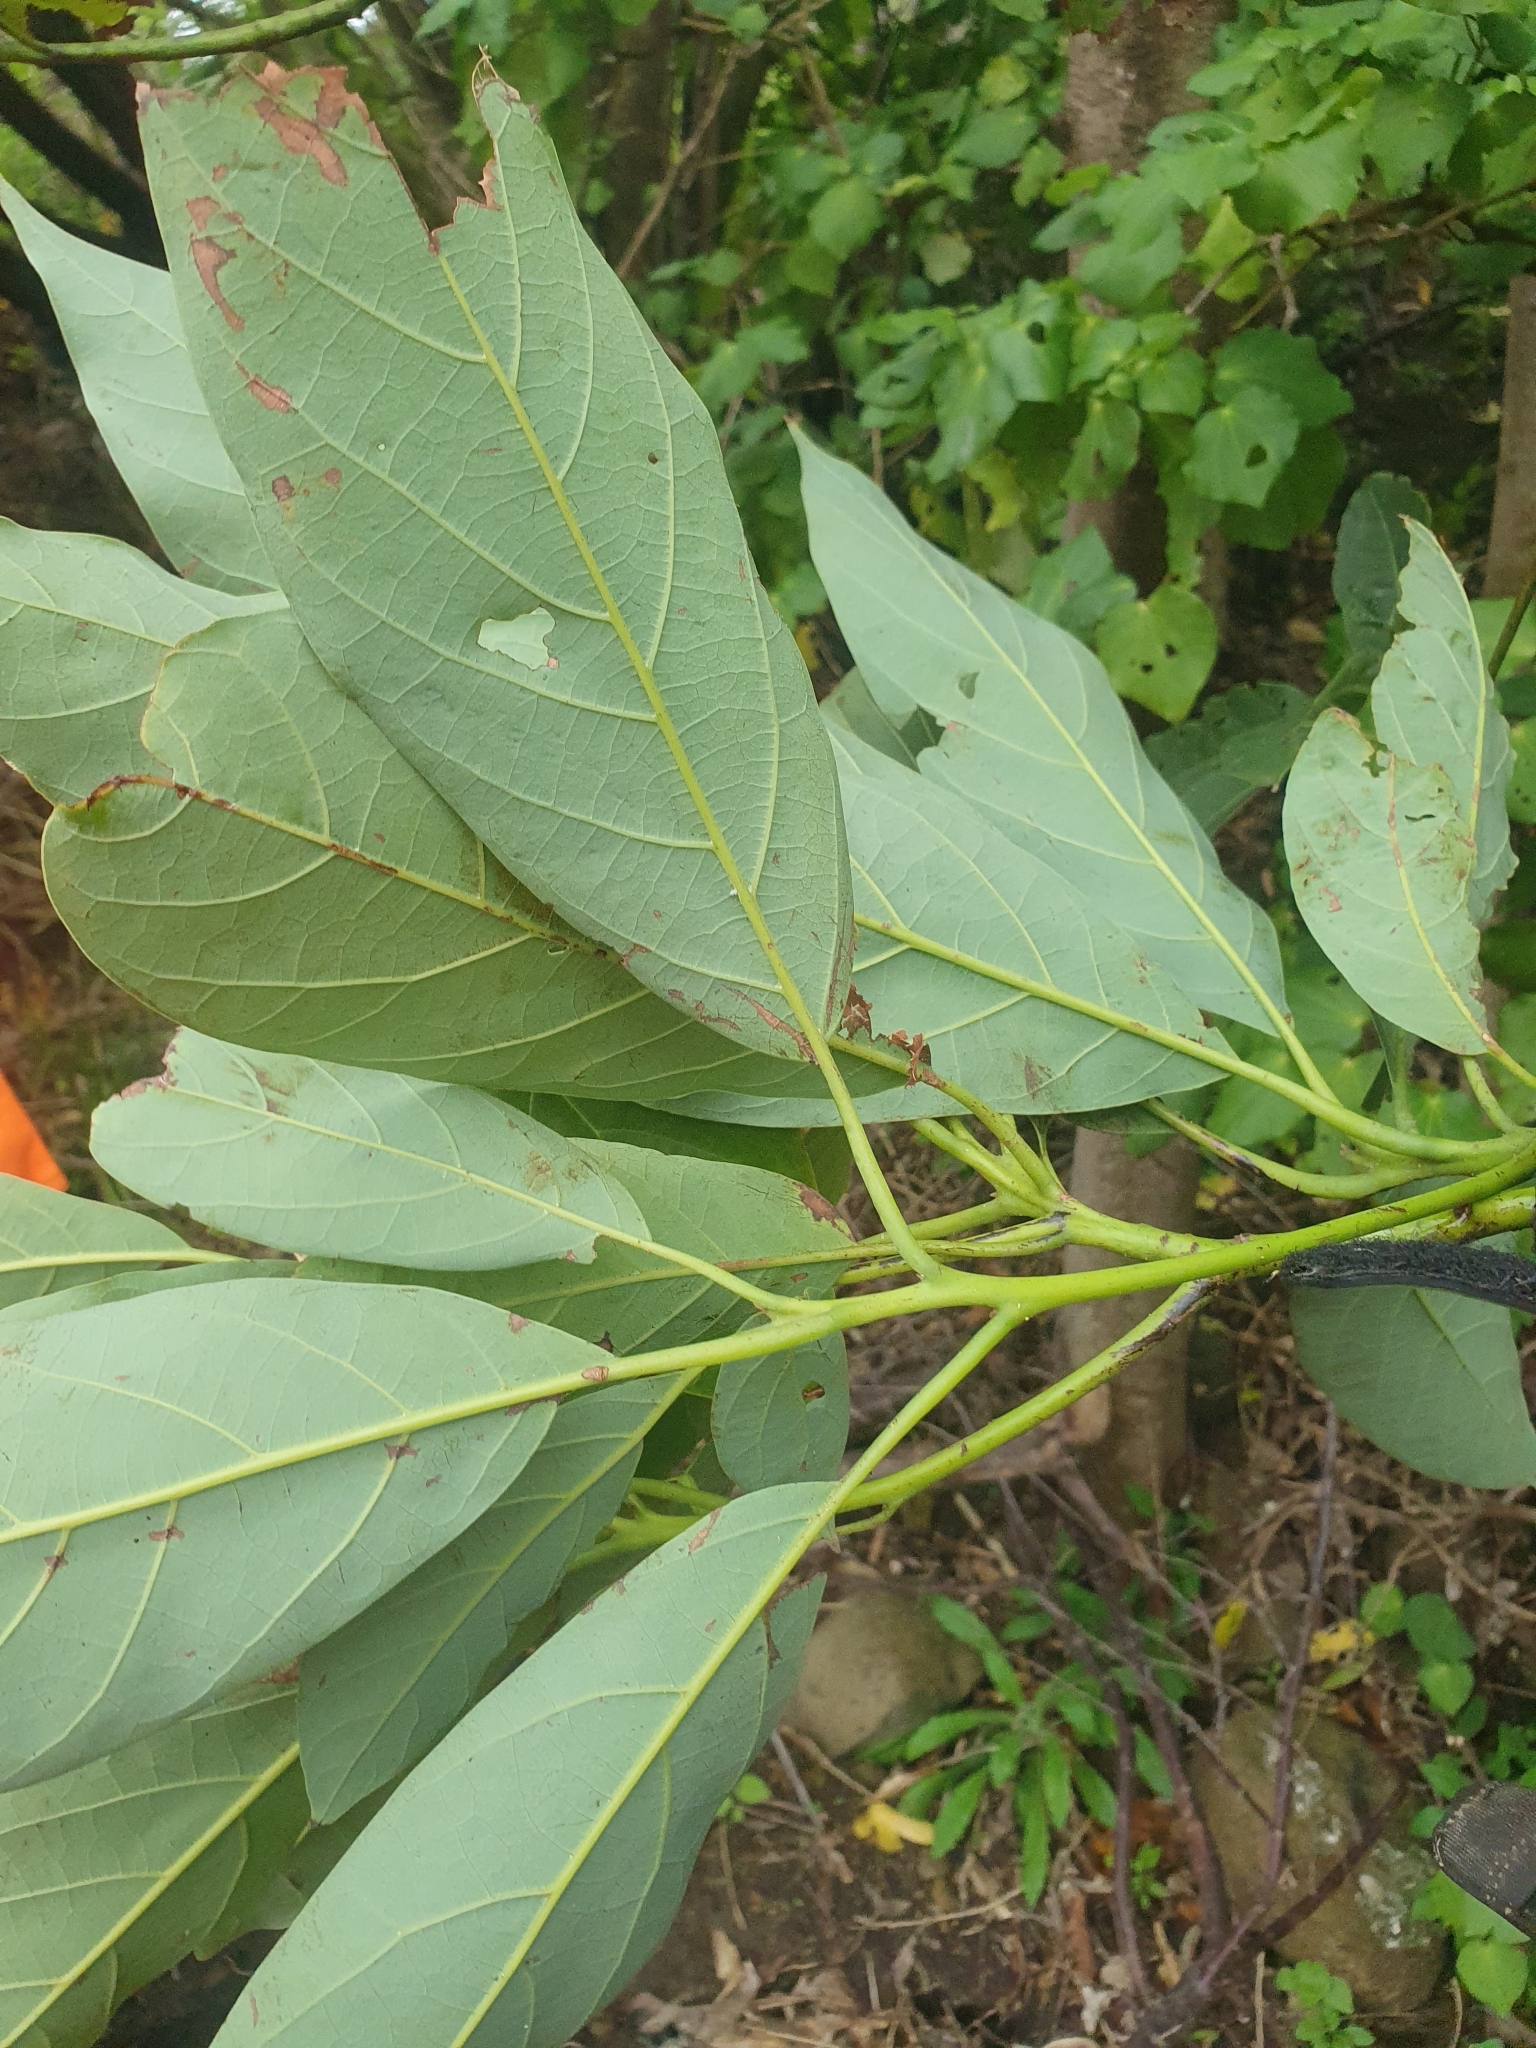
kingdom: Plantae
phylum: Tracheophyta
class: Magnoliopsida
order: Laurales
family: Lauraceae
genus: Persea
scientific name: Persea americana
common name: Avocado
